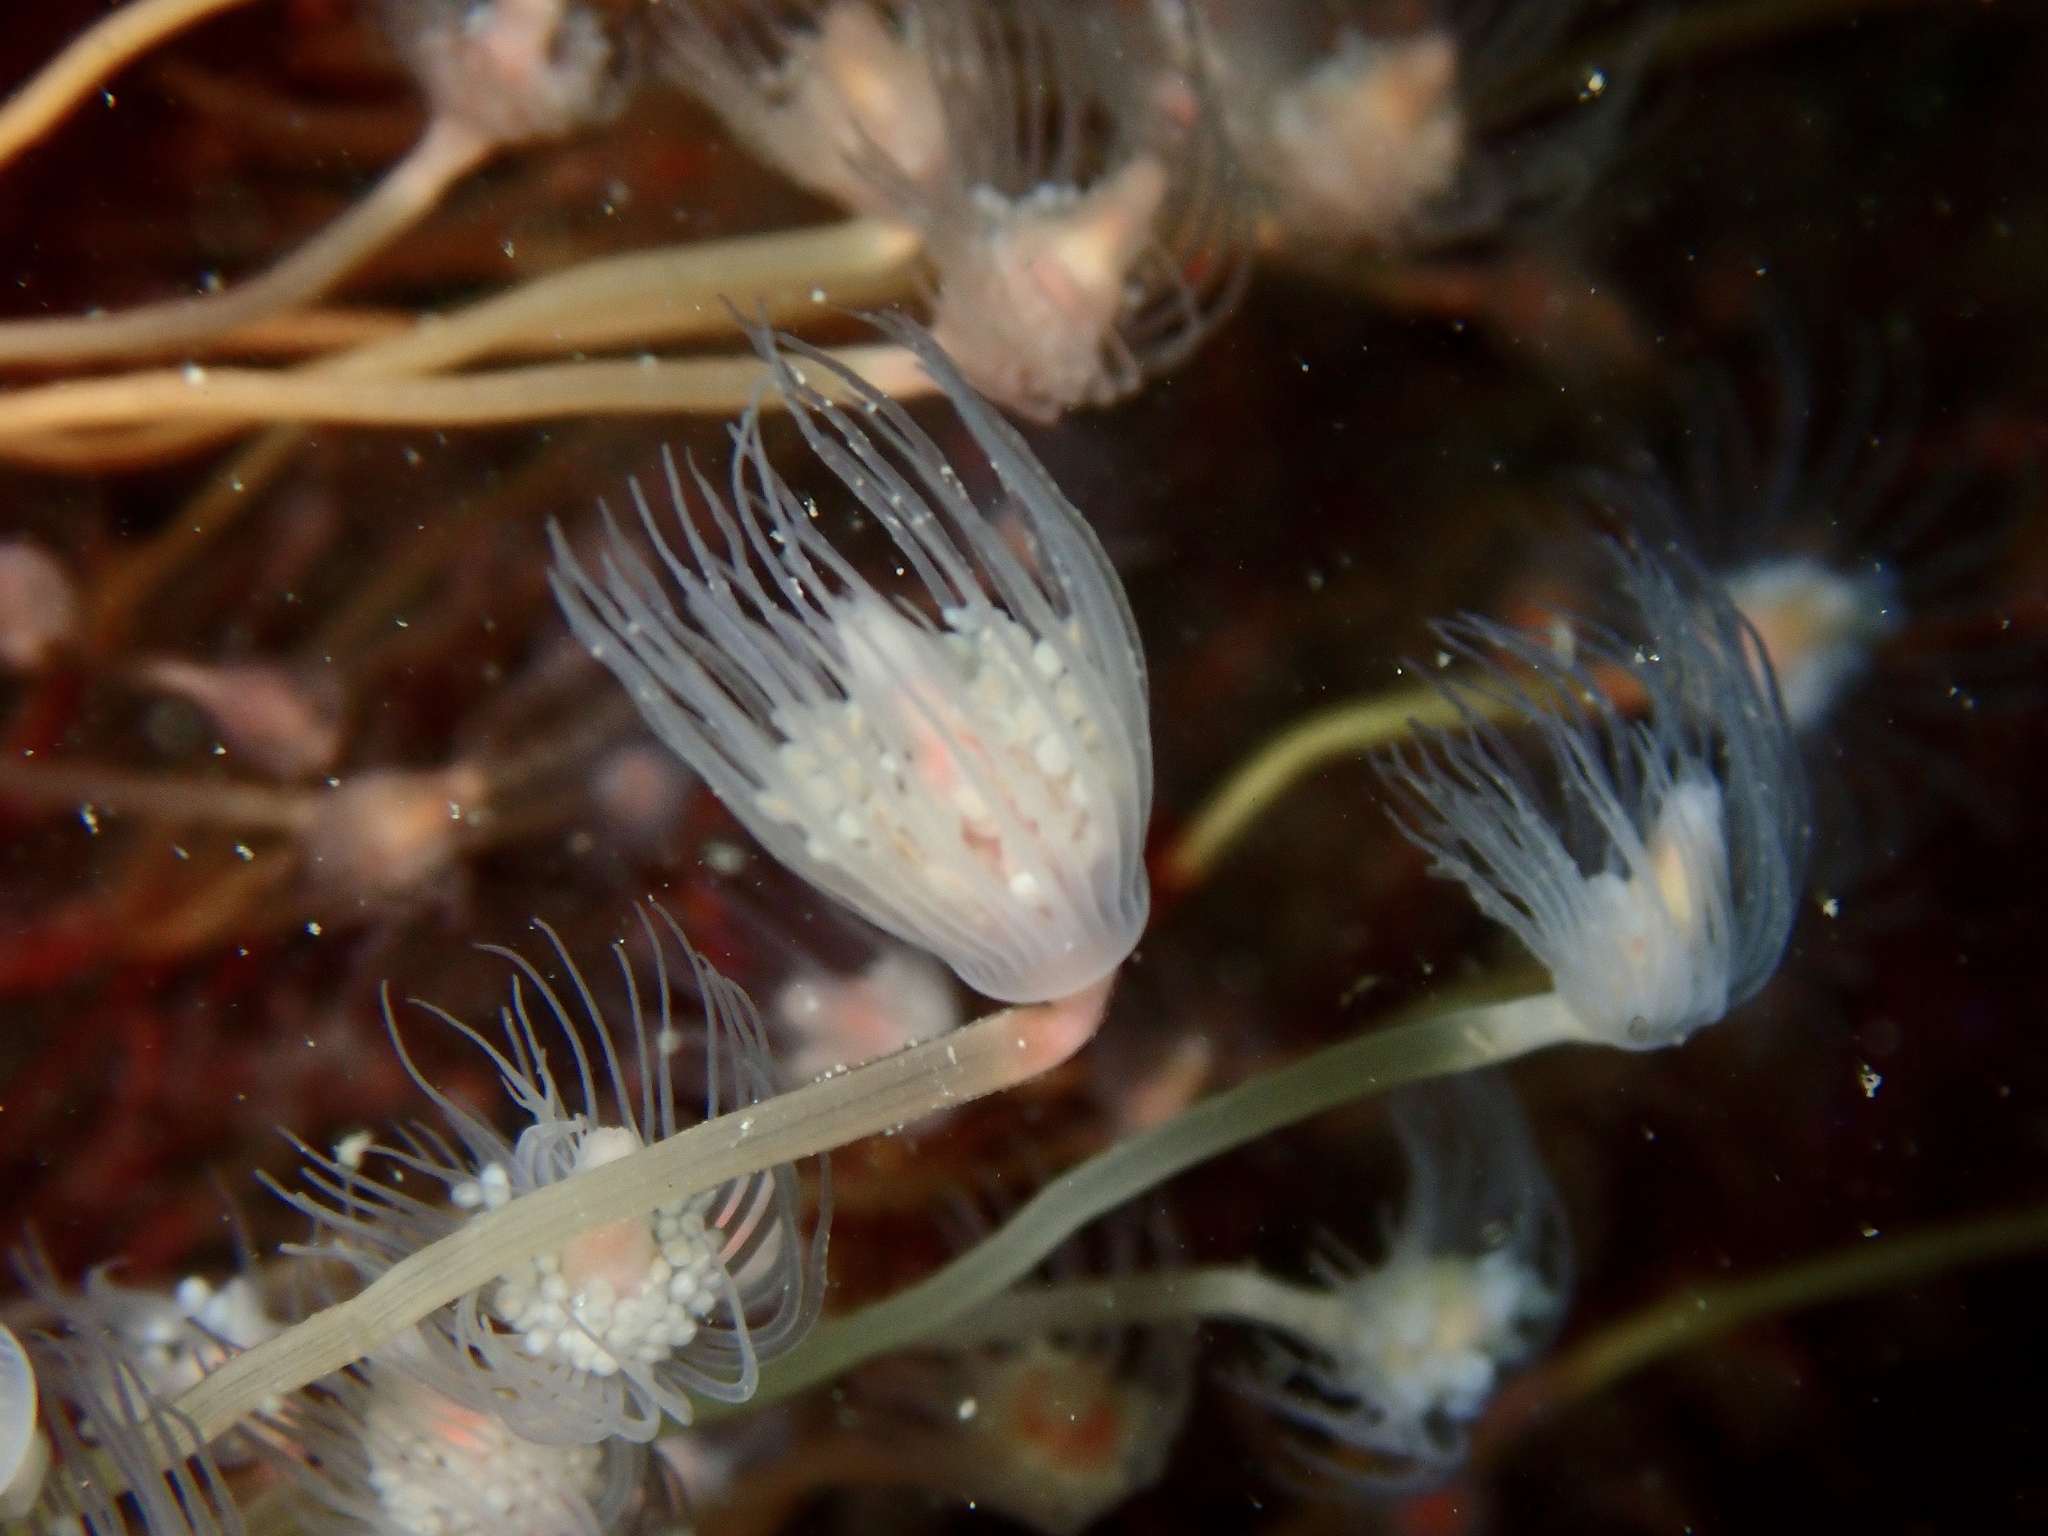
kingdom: Animalia
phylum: Cnidaria
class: Hydrozoa
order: Anthoathecata
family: Tubulariidae
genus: Tubularia
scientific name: Tubularia indivisa
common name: Oaten pipes hydroid
